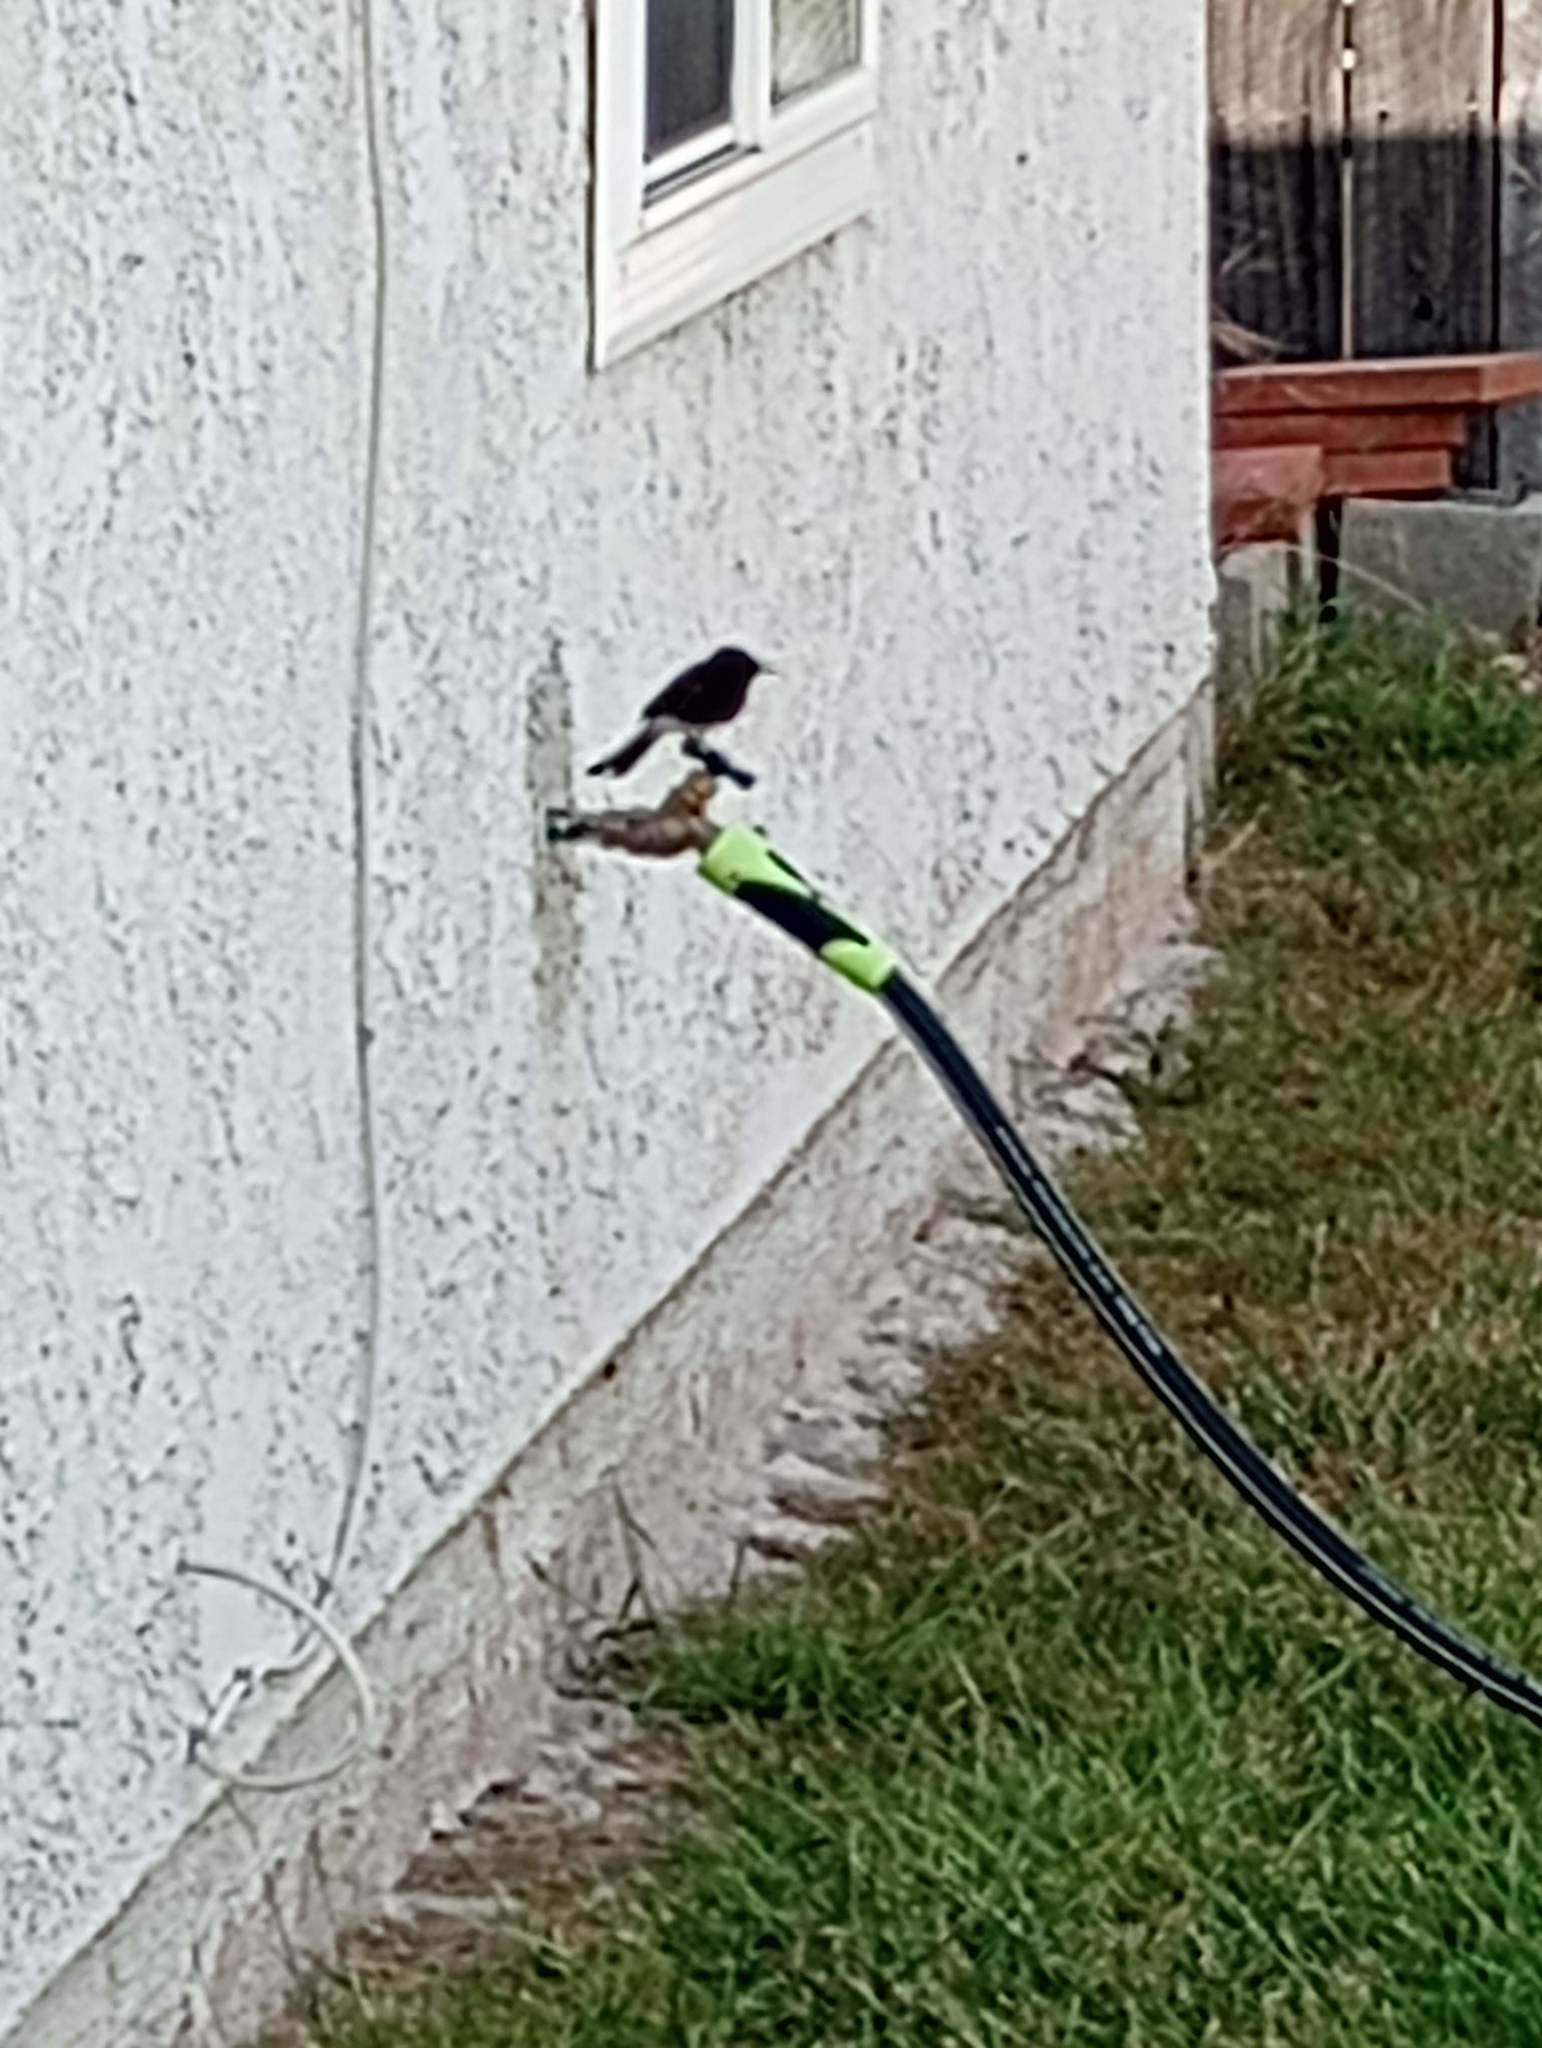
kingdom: Animalia
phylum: Chordata
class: Aves
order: Passeriformes
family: Tyrannidae
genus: Sayornis
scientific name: Sayornis nigricans
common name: Black phoebe
